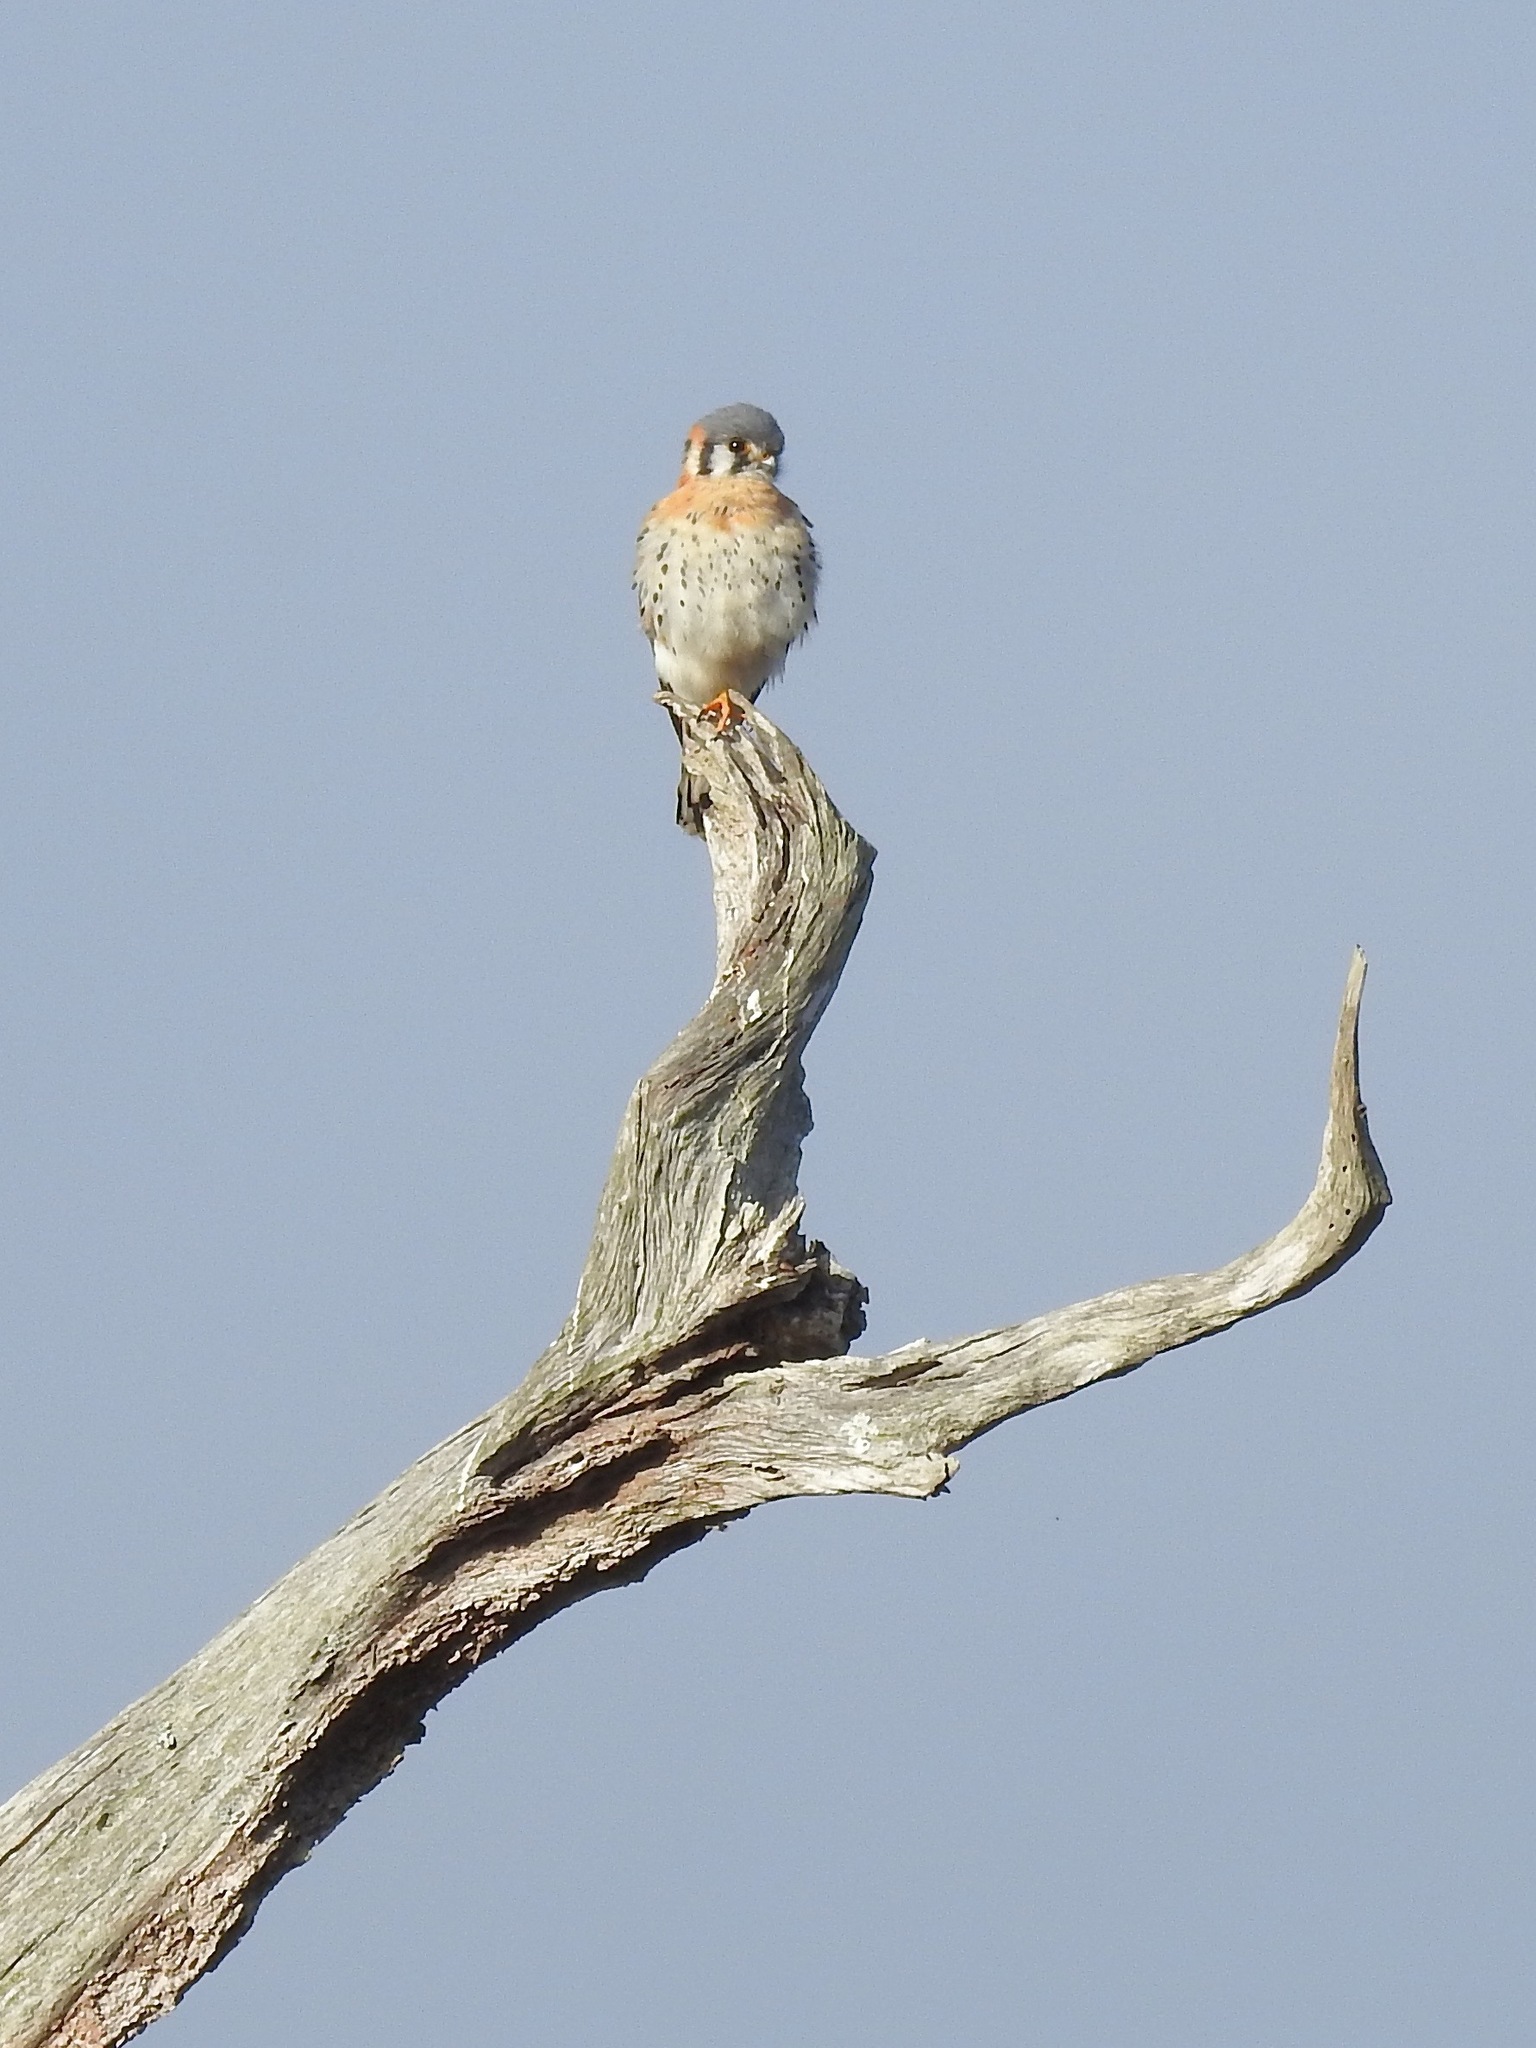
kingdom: Animalia
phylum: Chordata
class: Aves
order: Falconiformes
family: Falconidae
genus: Falco
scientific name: Falco sparverius
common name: American kestrel
